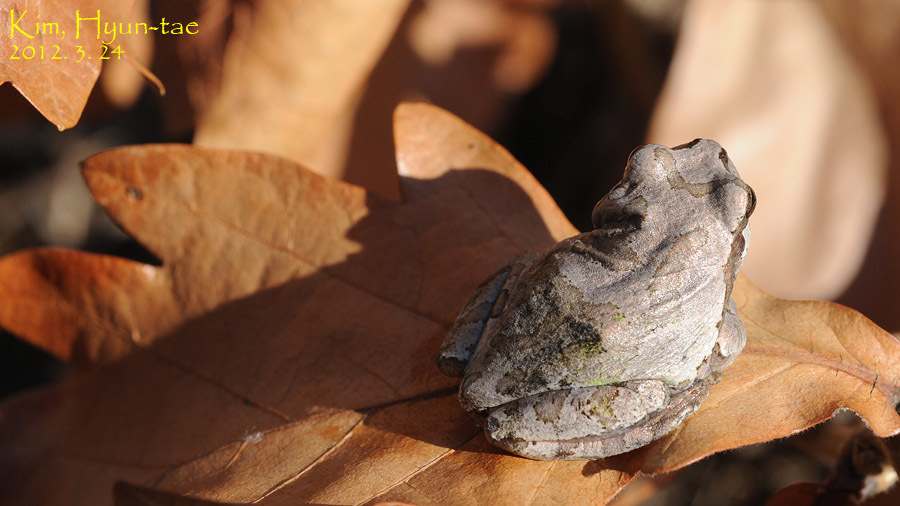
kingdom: Animalia
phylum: Chordata
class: Amphibia
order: Anura
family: Hylidae
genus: Dryophytes
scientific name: Dryophytes japonicus
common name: Japanese treefrog
